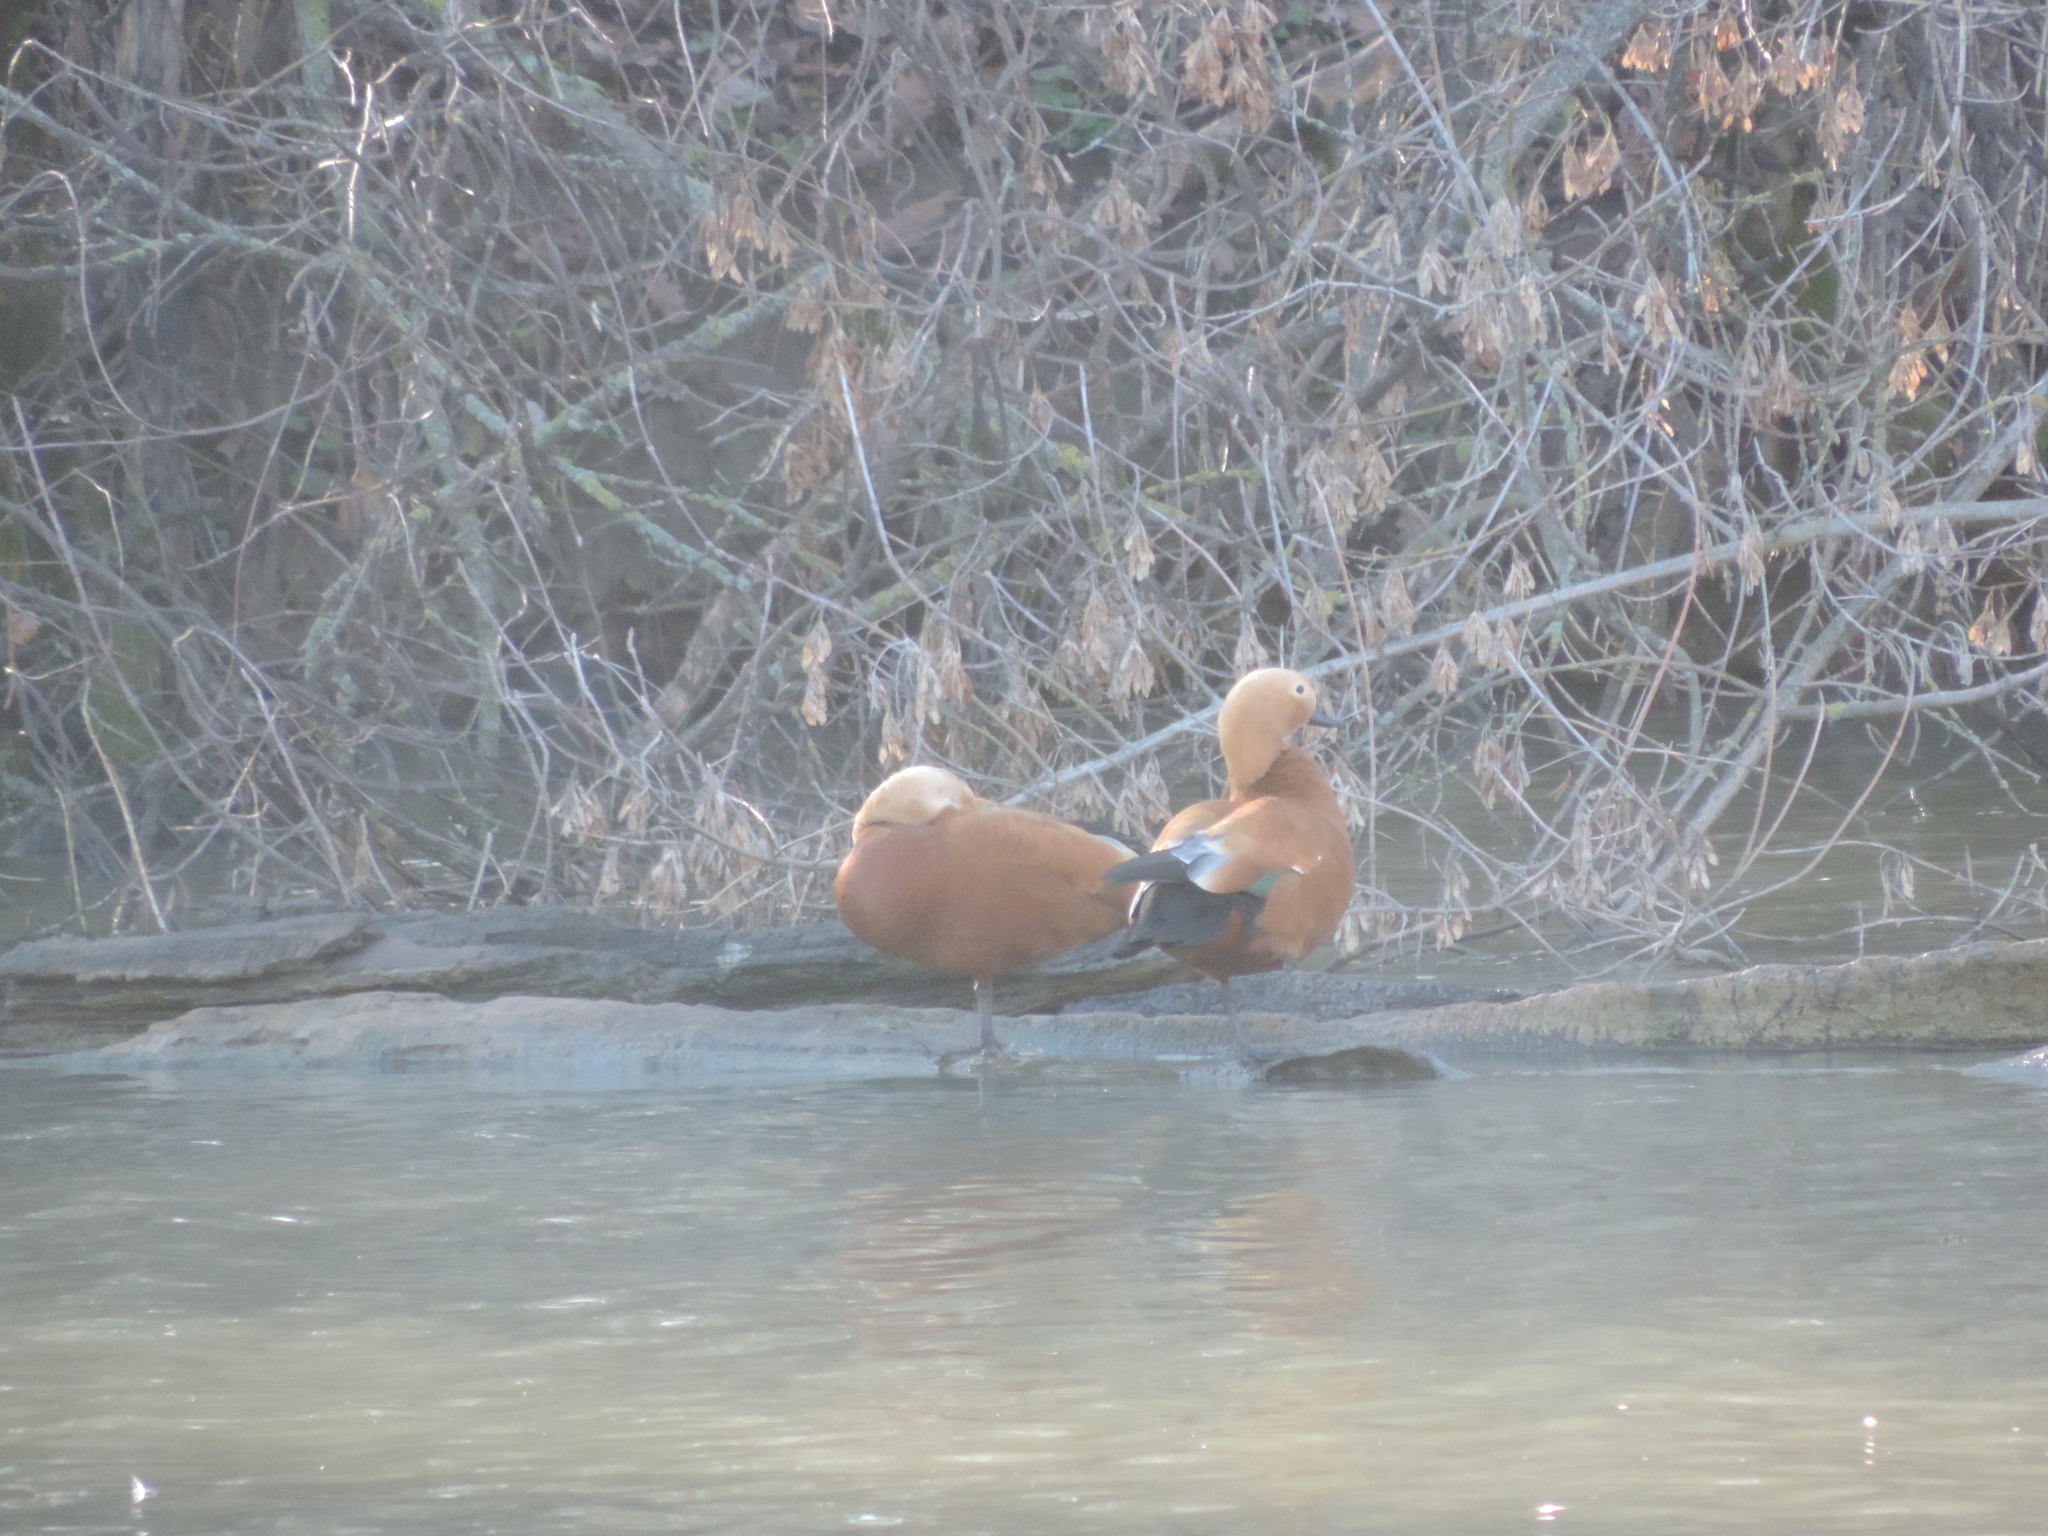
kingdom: Animalia
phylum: Chordata
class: Aves
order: Anseriformes
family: Anatidae
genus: Tadorna
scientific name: Tadorna ferruginea
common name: Ruddy shelduck
